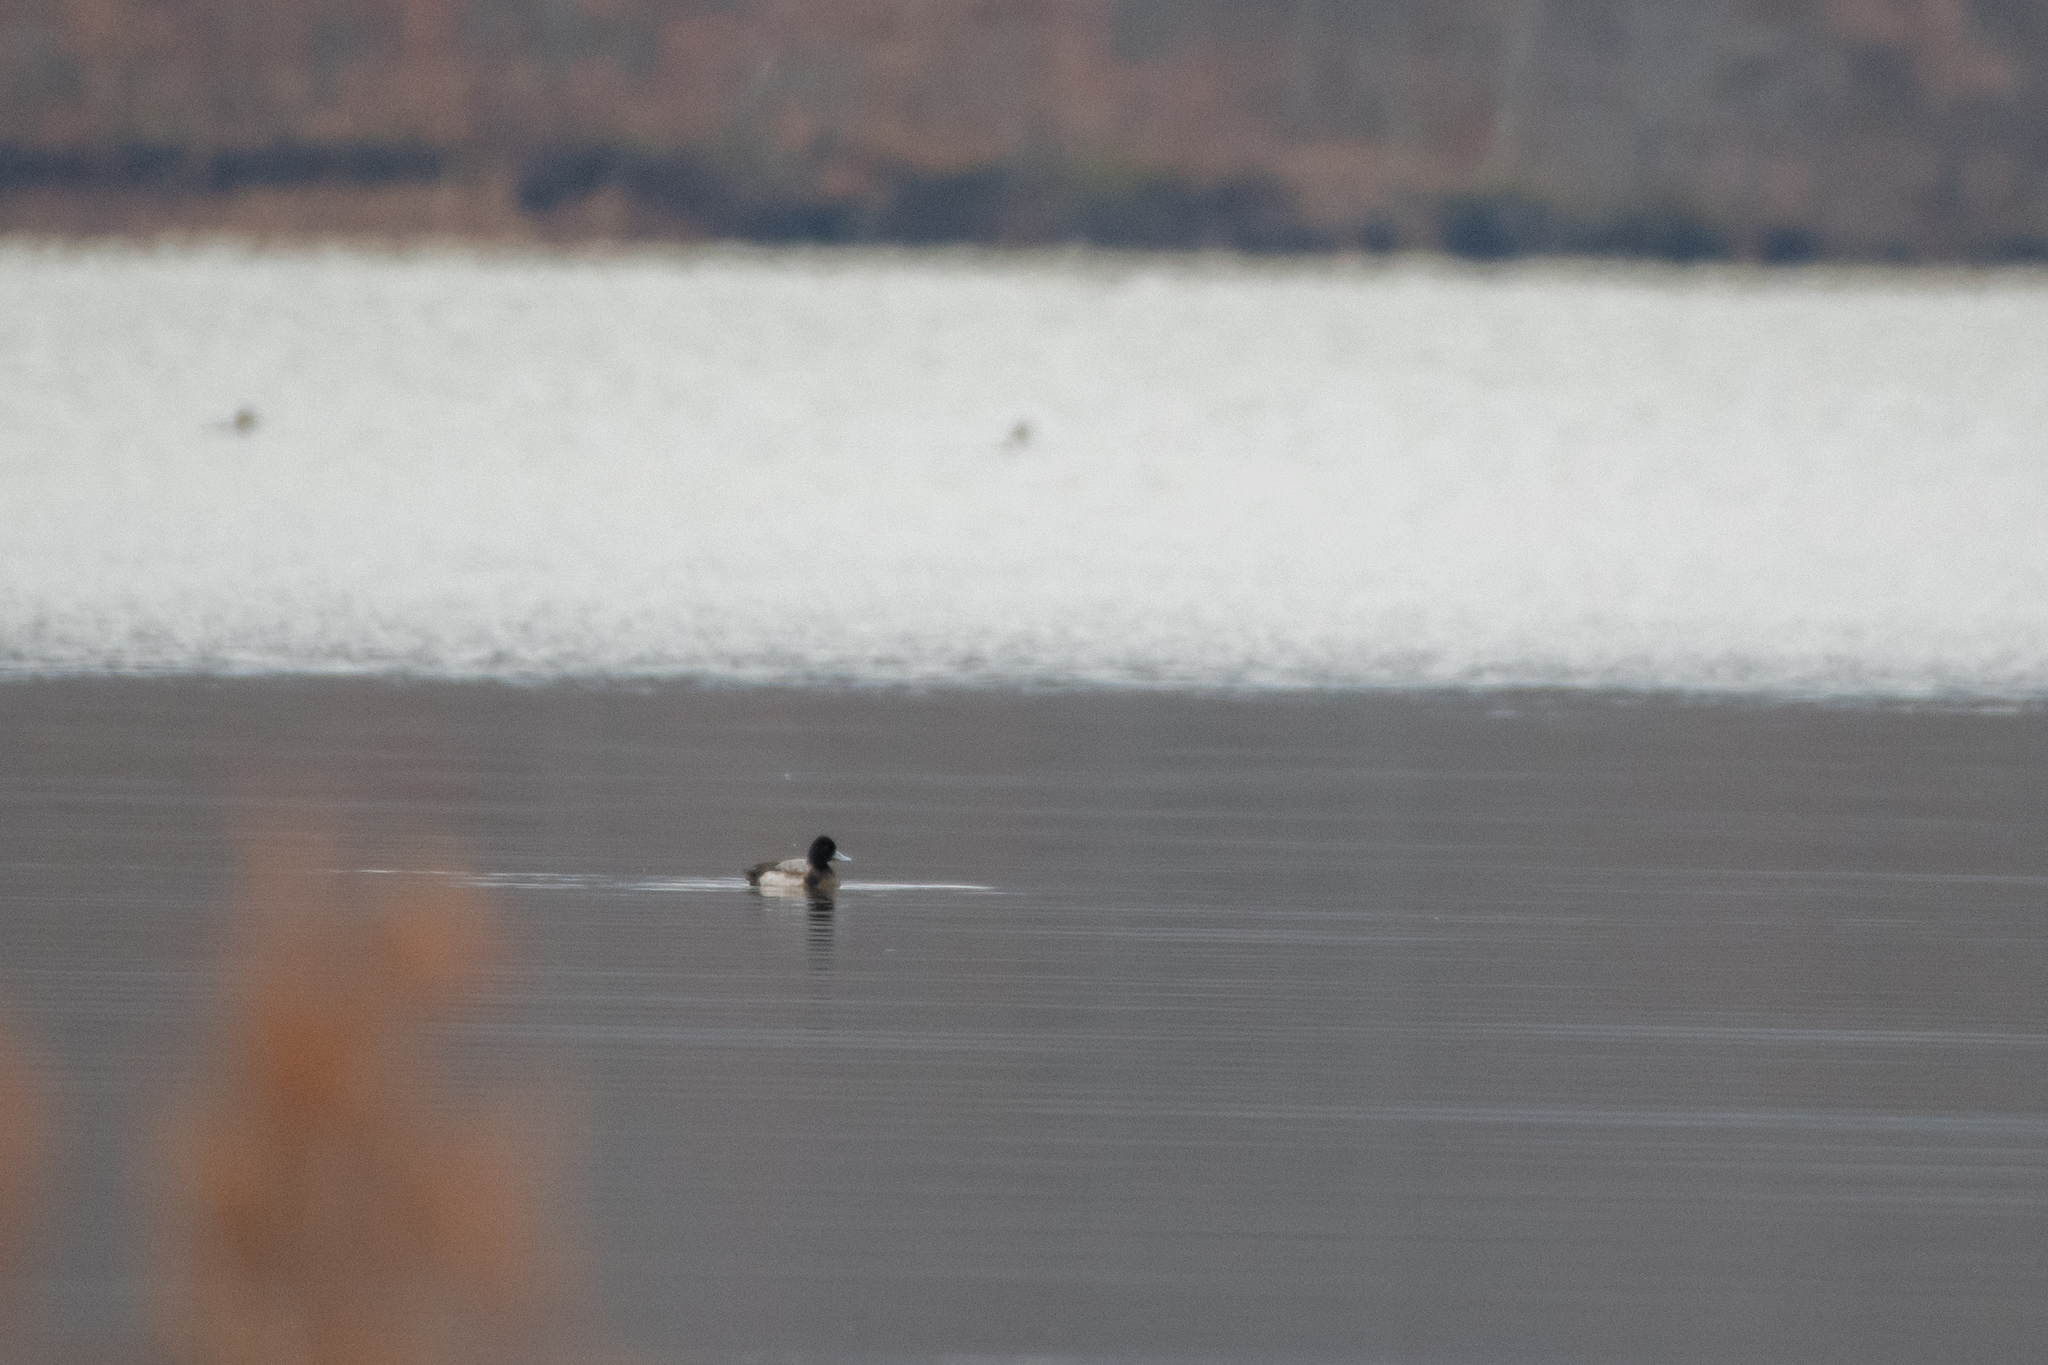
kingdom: Animalia
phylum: Chordata
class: Aves
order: Anseriformes
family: Anatidae
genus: Aythya
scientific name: Aythya affinis
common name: Lesser scaup
